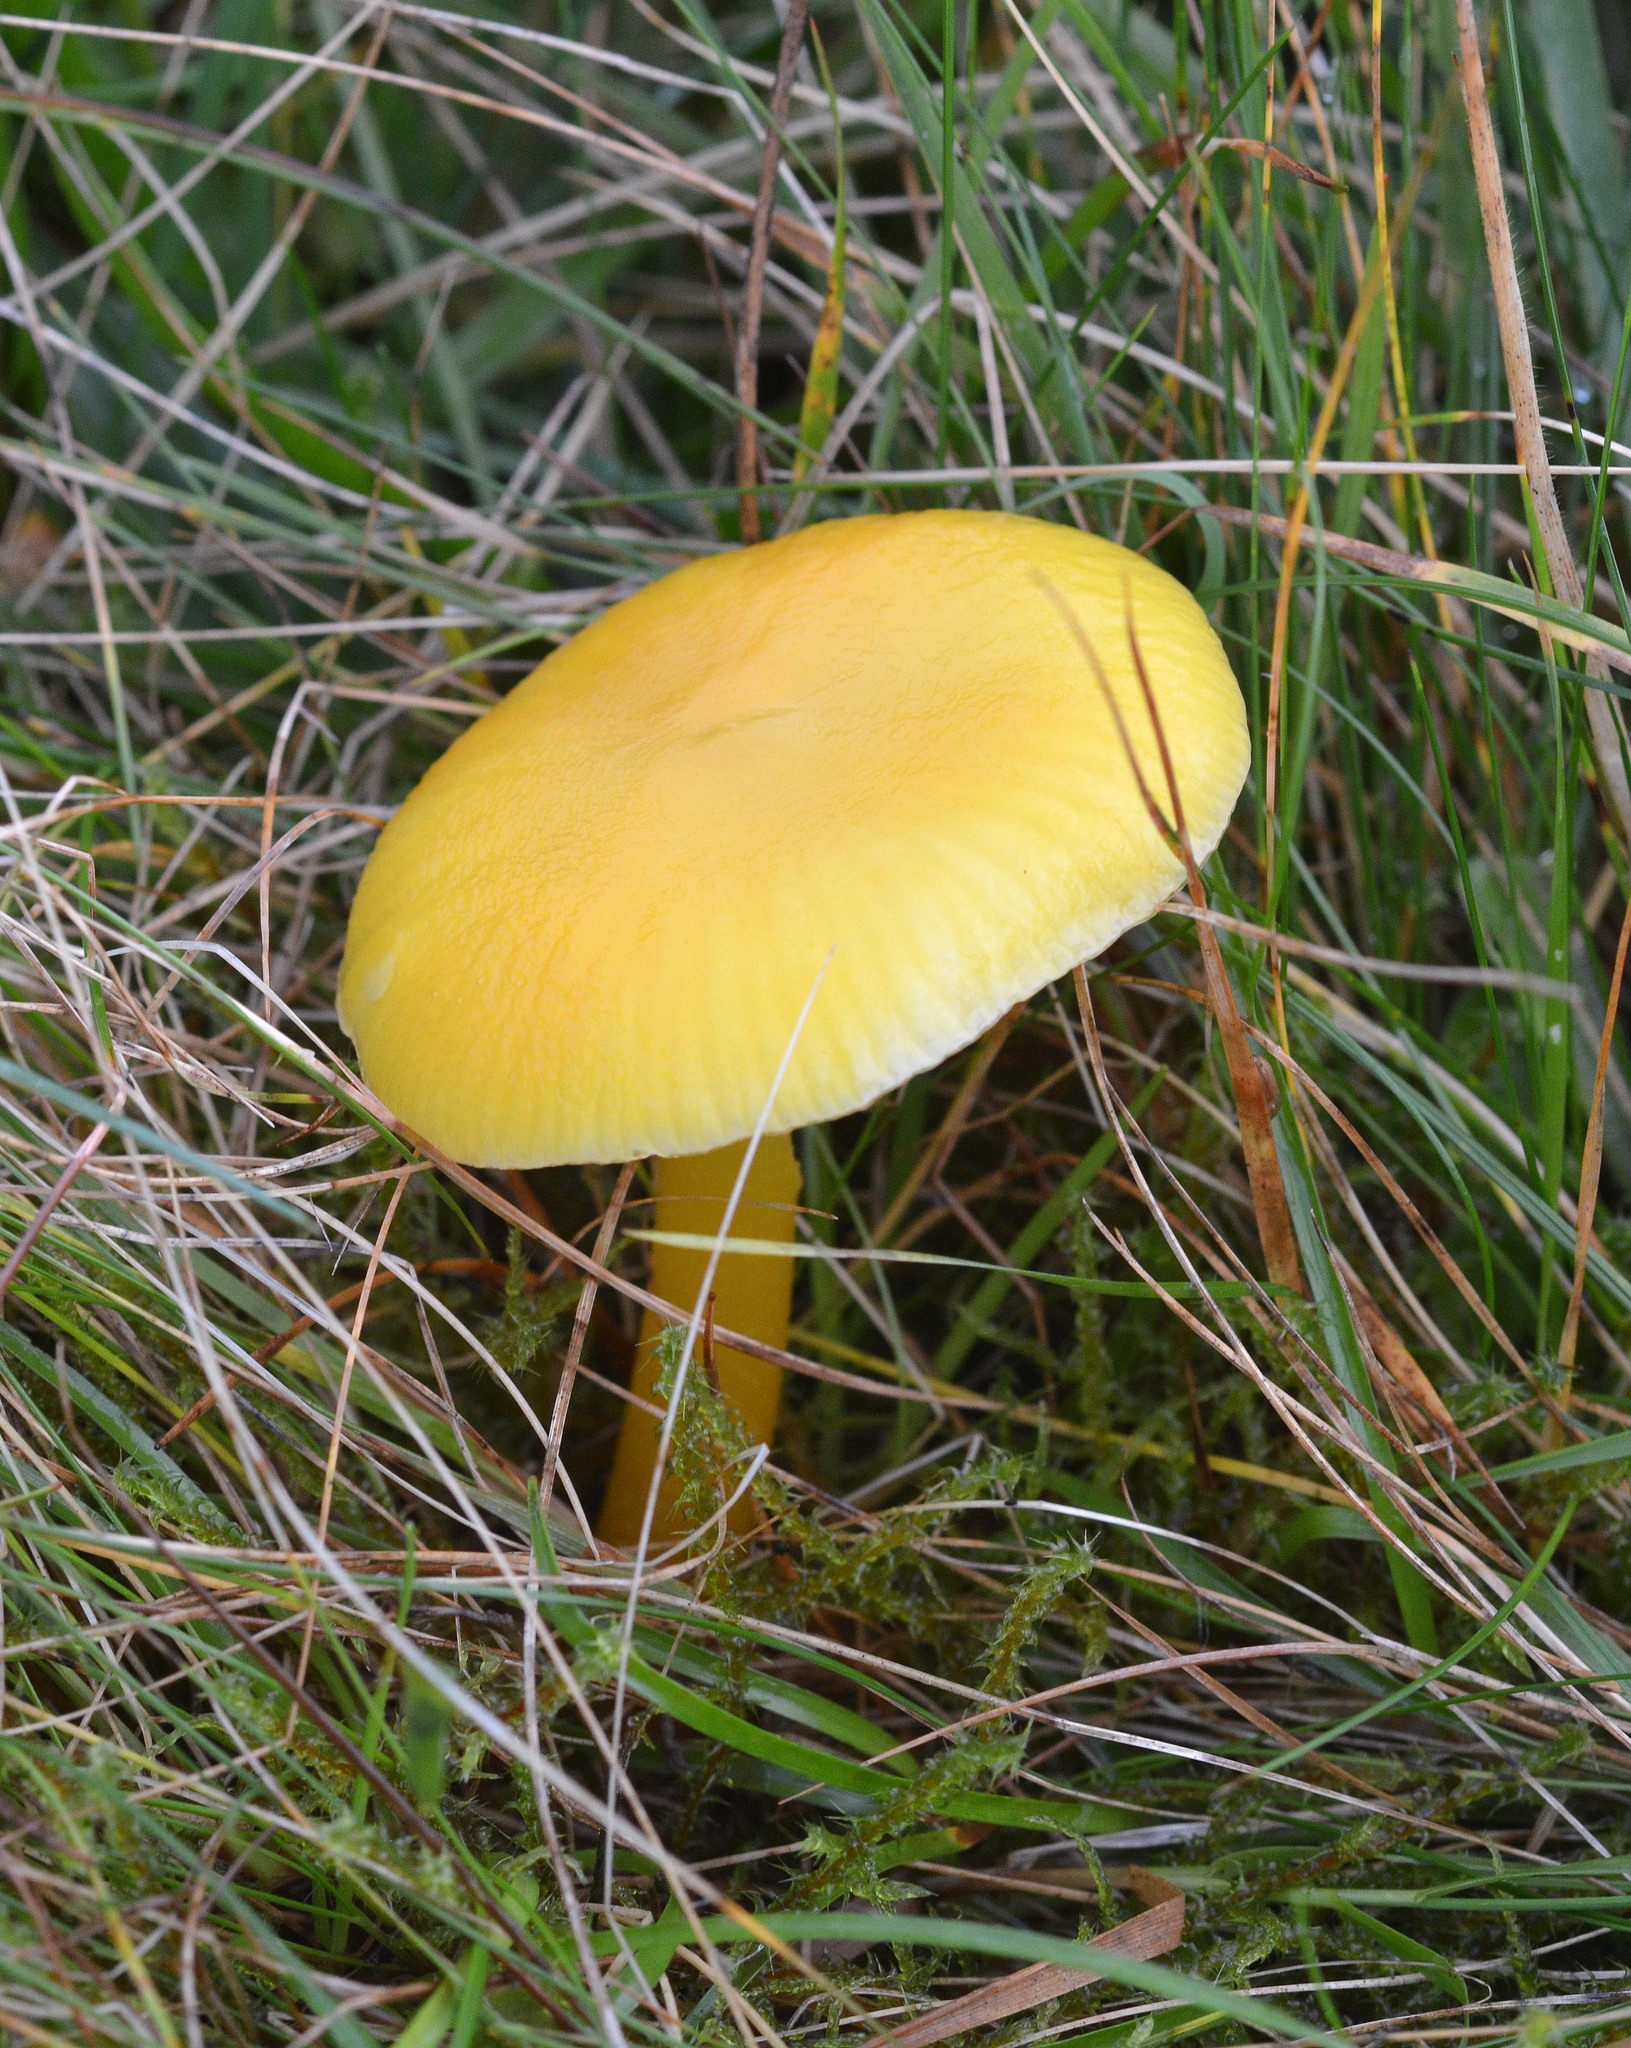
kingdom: Fungi
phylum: Basidiomycota
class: Agaricomycetes
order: Agaricales
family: Hygrophoraceae
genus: Hygrocybe
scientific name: Hygrocybe chlorophana
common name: Golden waxcap
